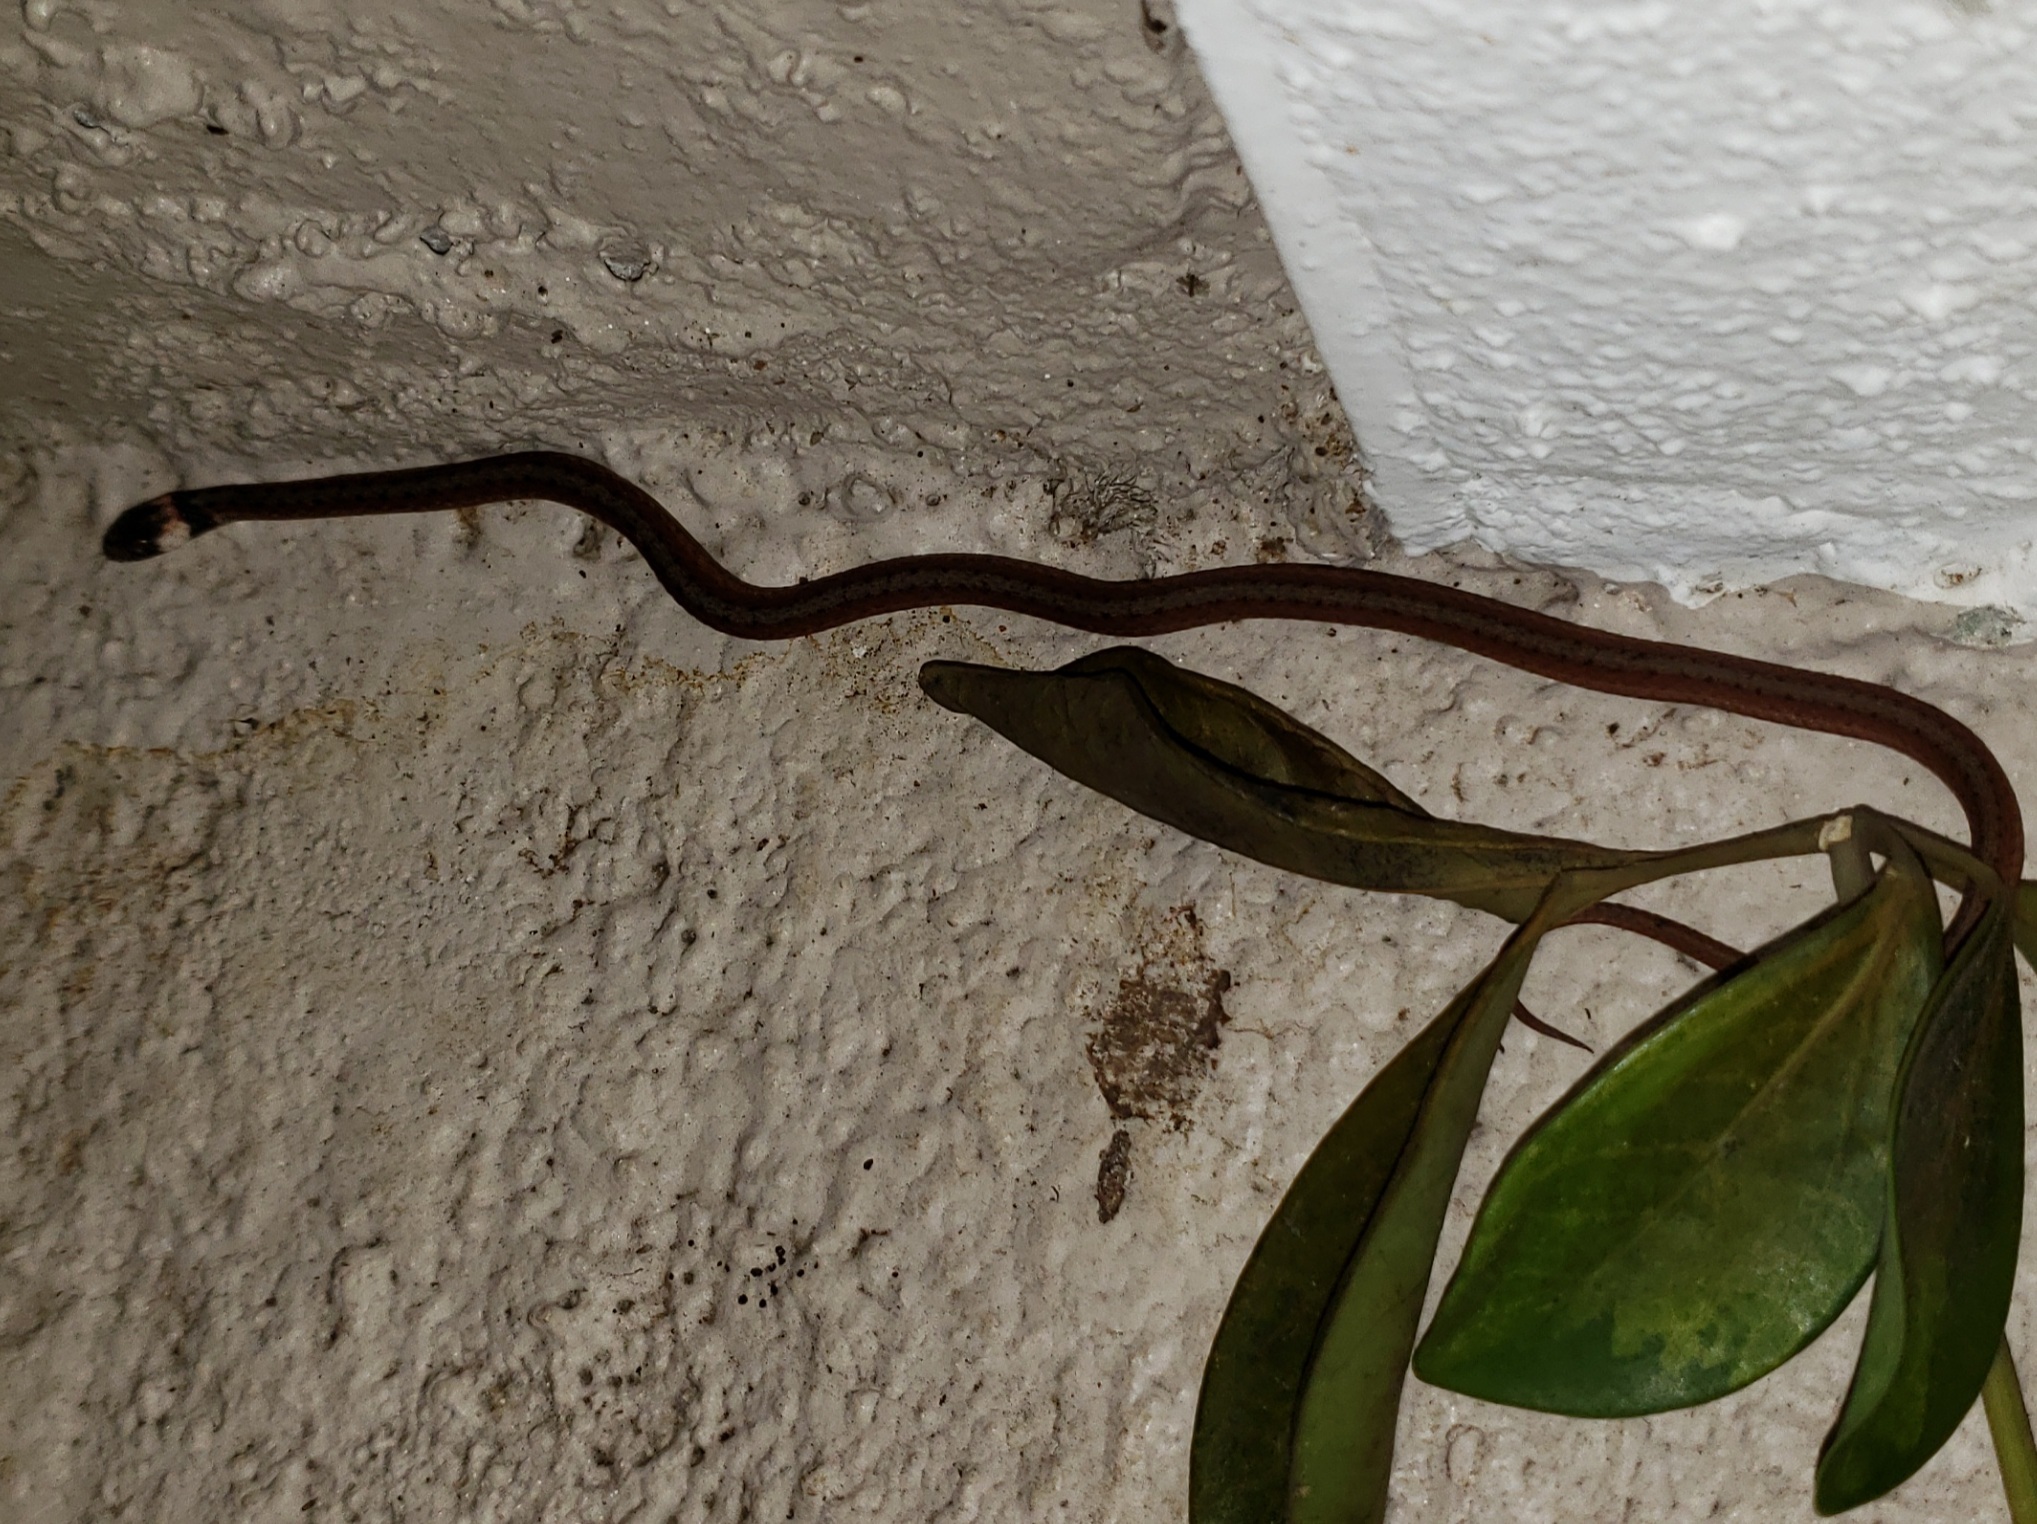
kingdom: Animalia
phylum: Chordata
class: Squamata
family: Colubridae
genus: Storeria
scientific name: Storeria victa
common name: Florida brown snake
